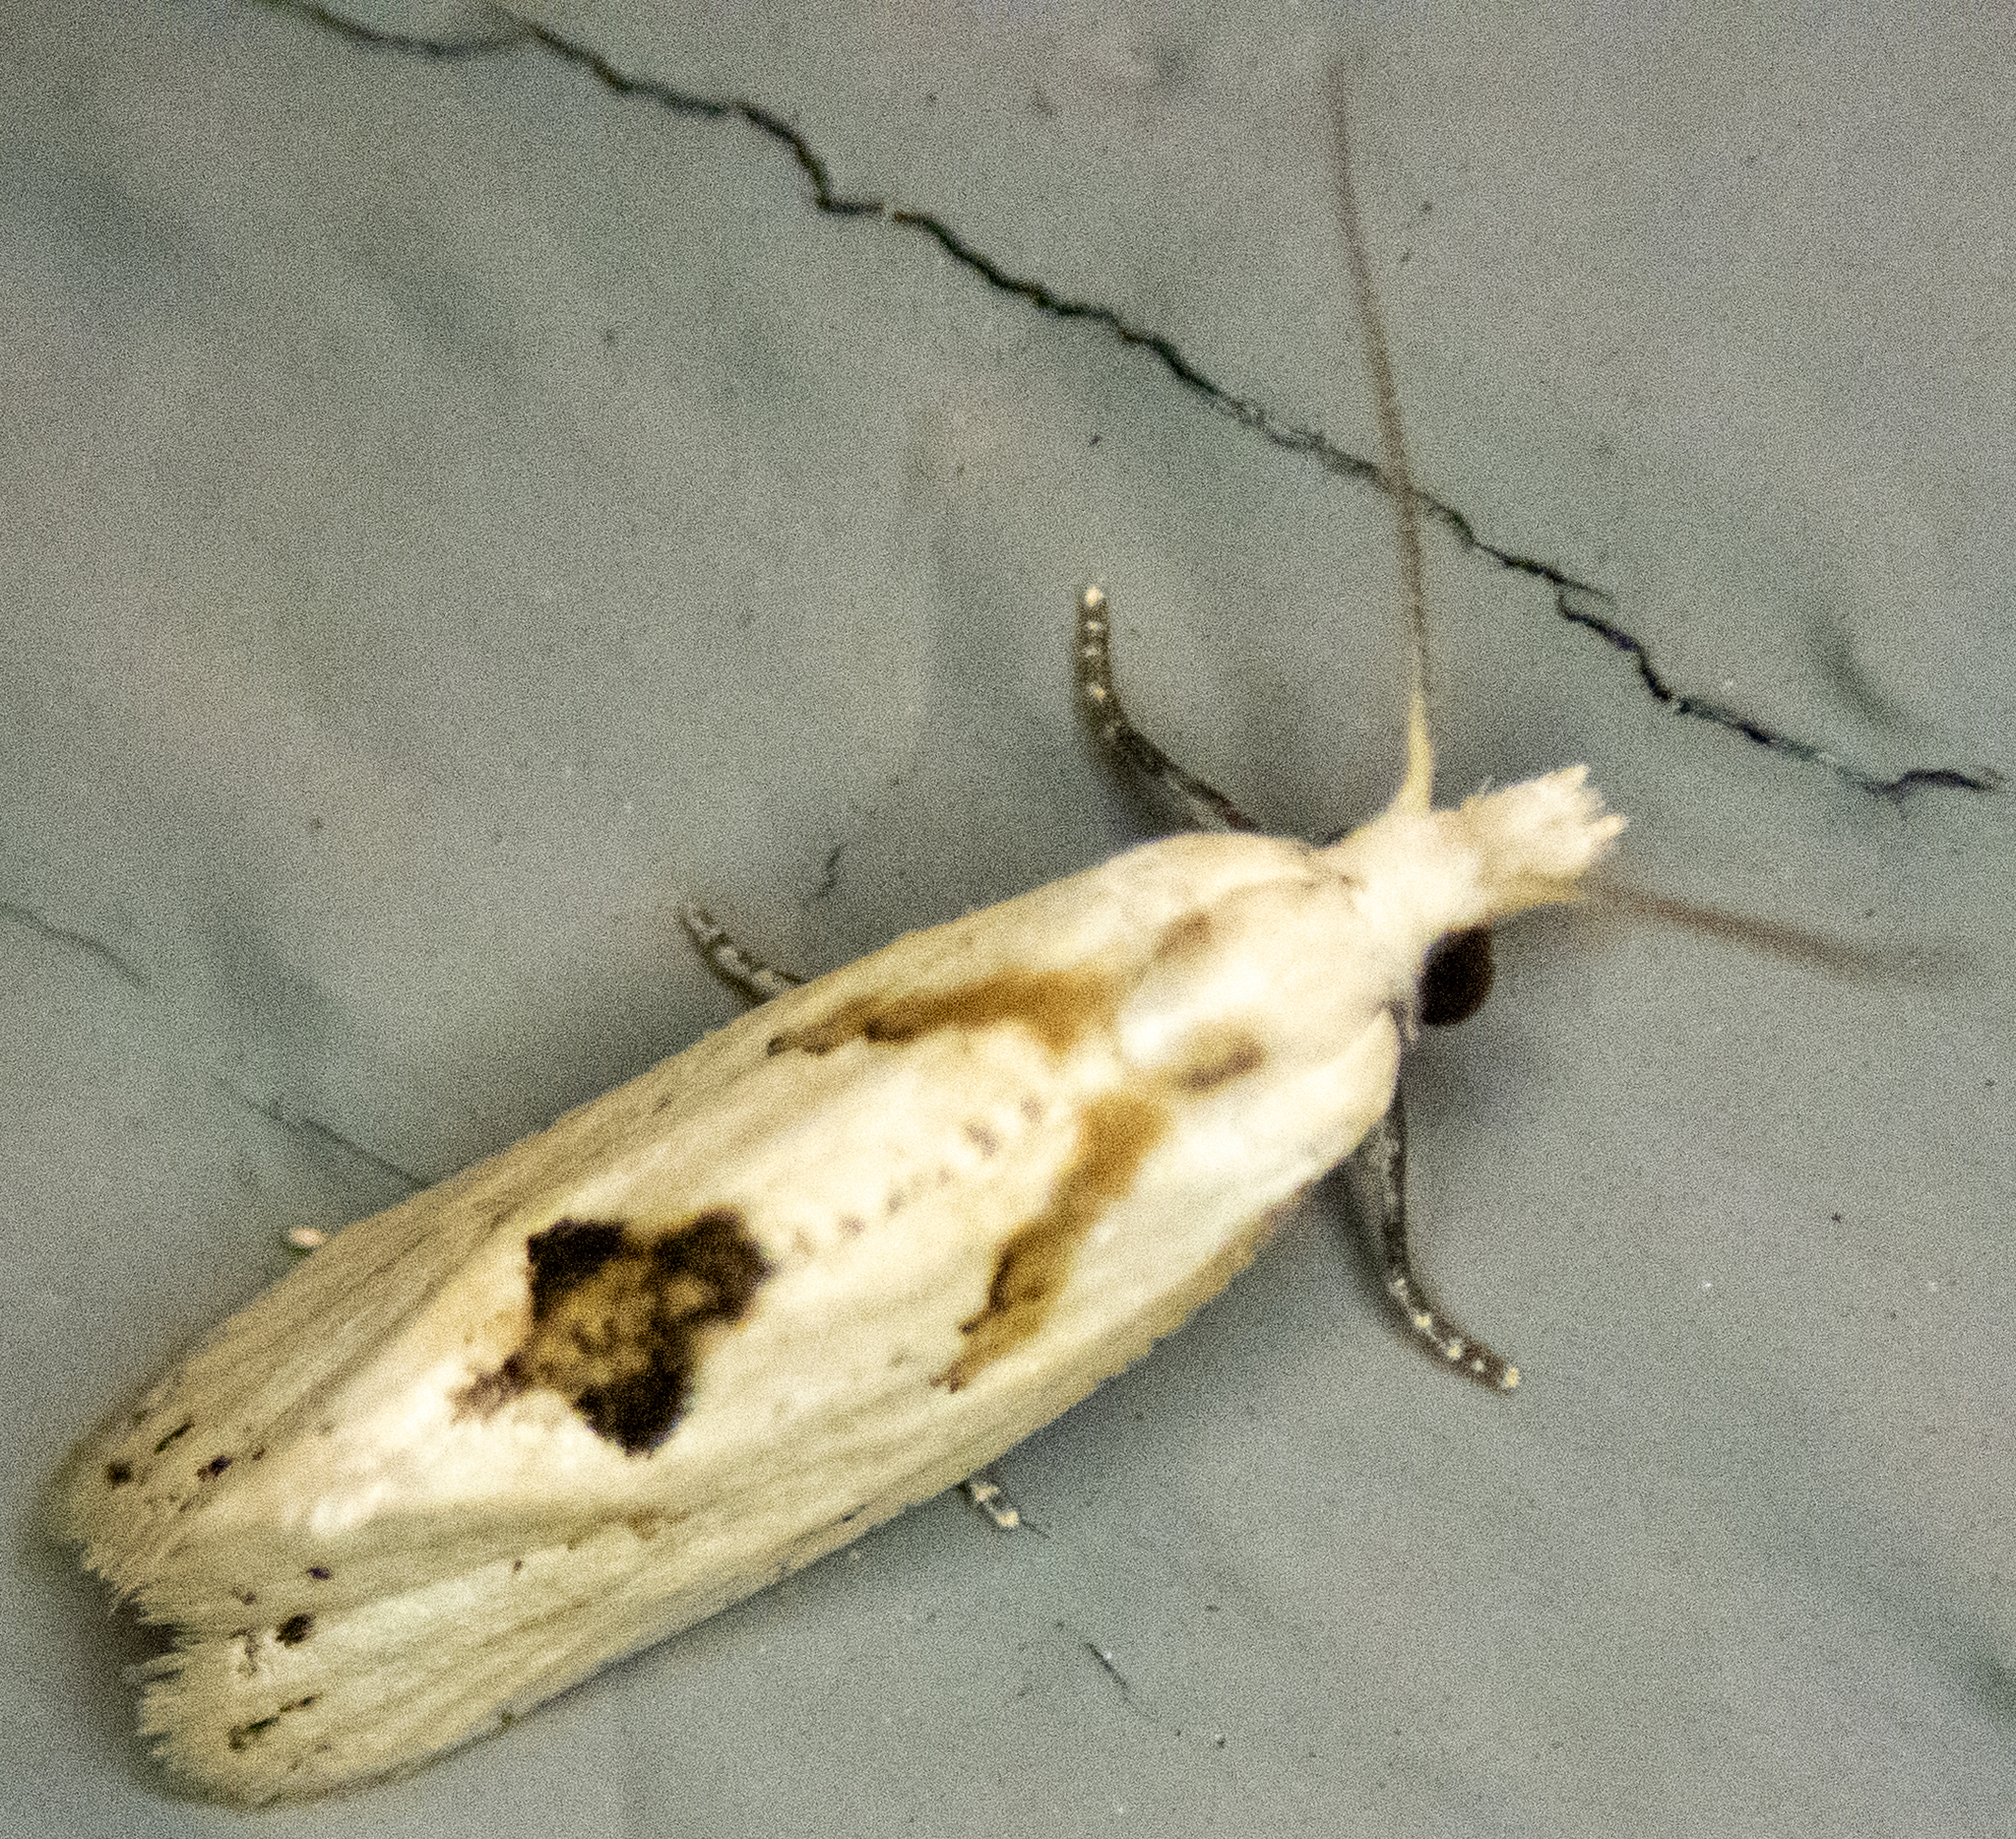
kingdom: Animalia
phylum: Arthropoda
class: Insecta
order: Lepidoptera
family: Tortricidae
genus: Aethes
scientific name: Aethes mymara
